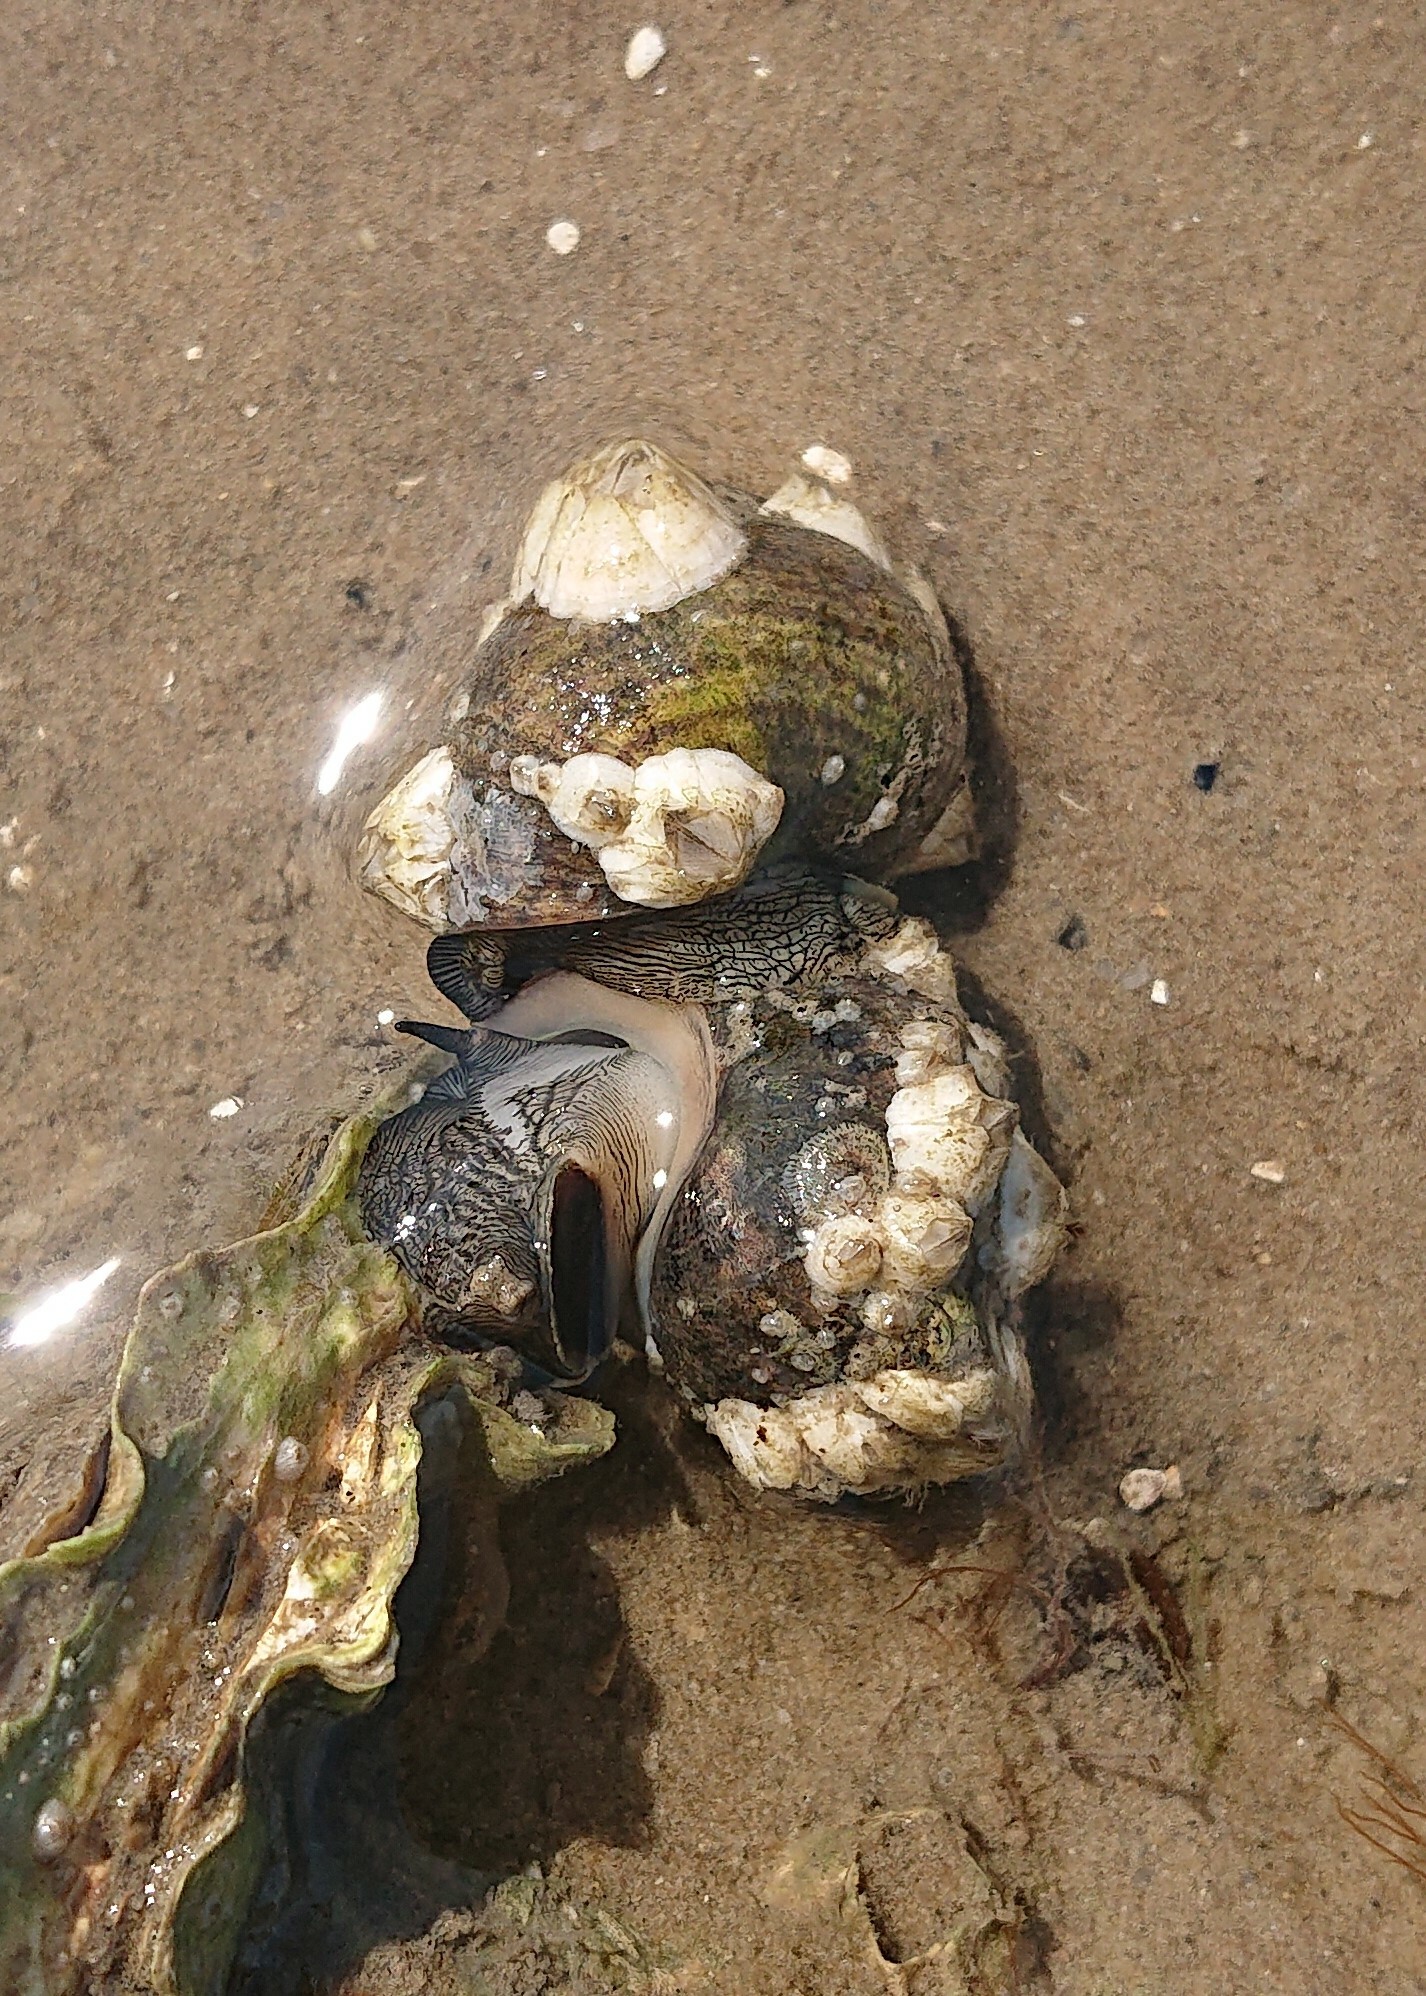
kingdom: Animalia
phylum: Mollusca
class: Gastropoda
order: Littorinimorpha
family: Littorinidae
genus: Littorina
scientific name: Littorina littorea
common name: Common periwinkle
